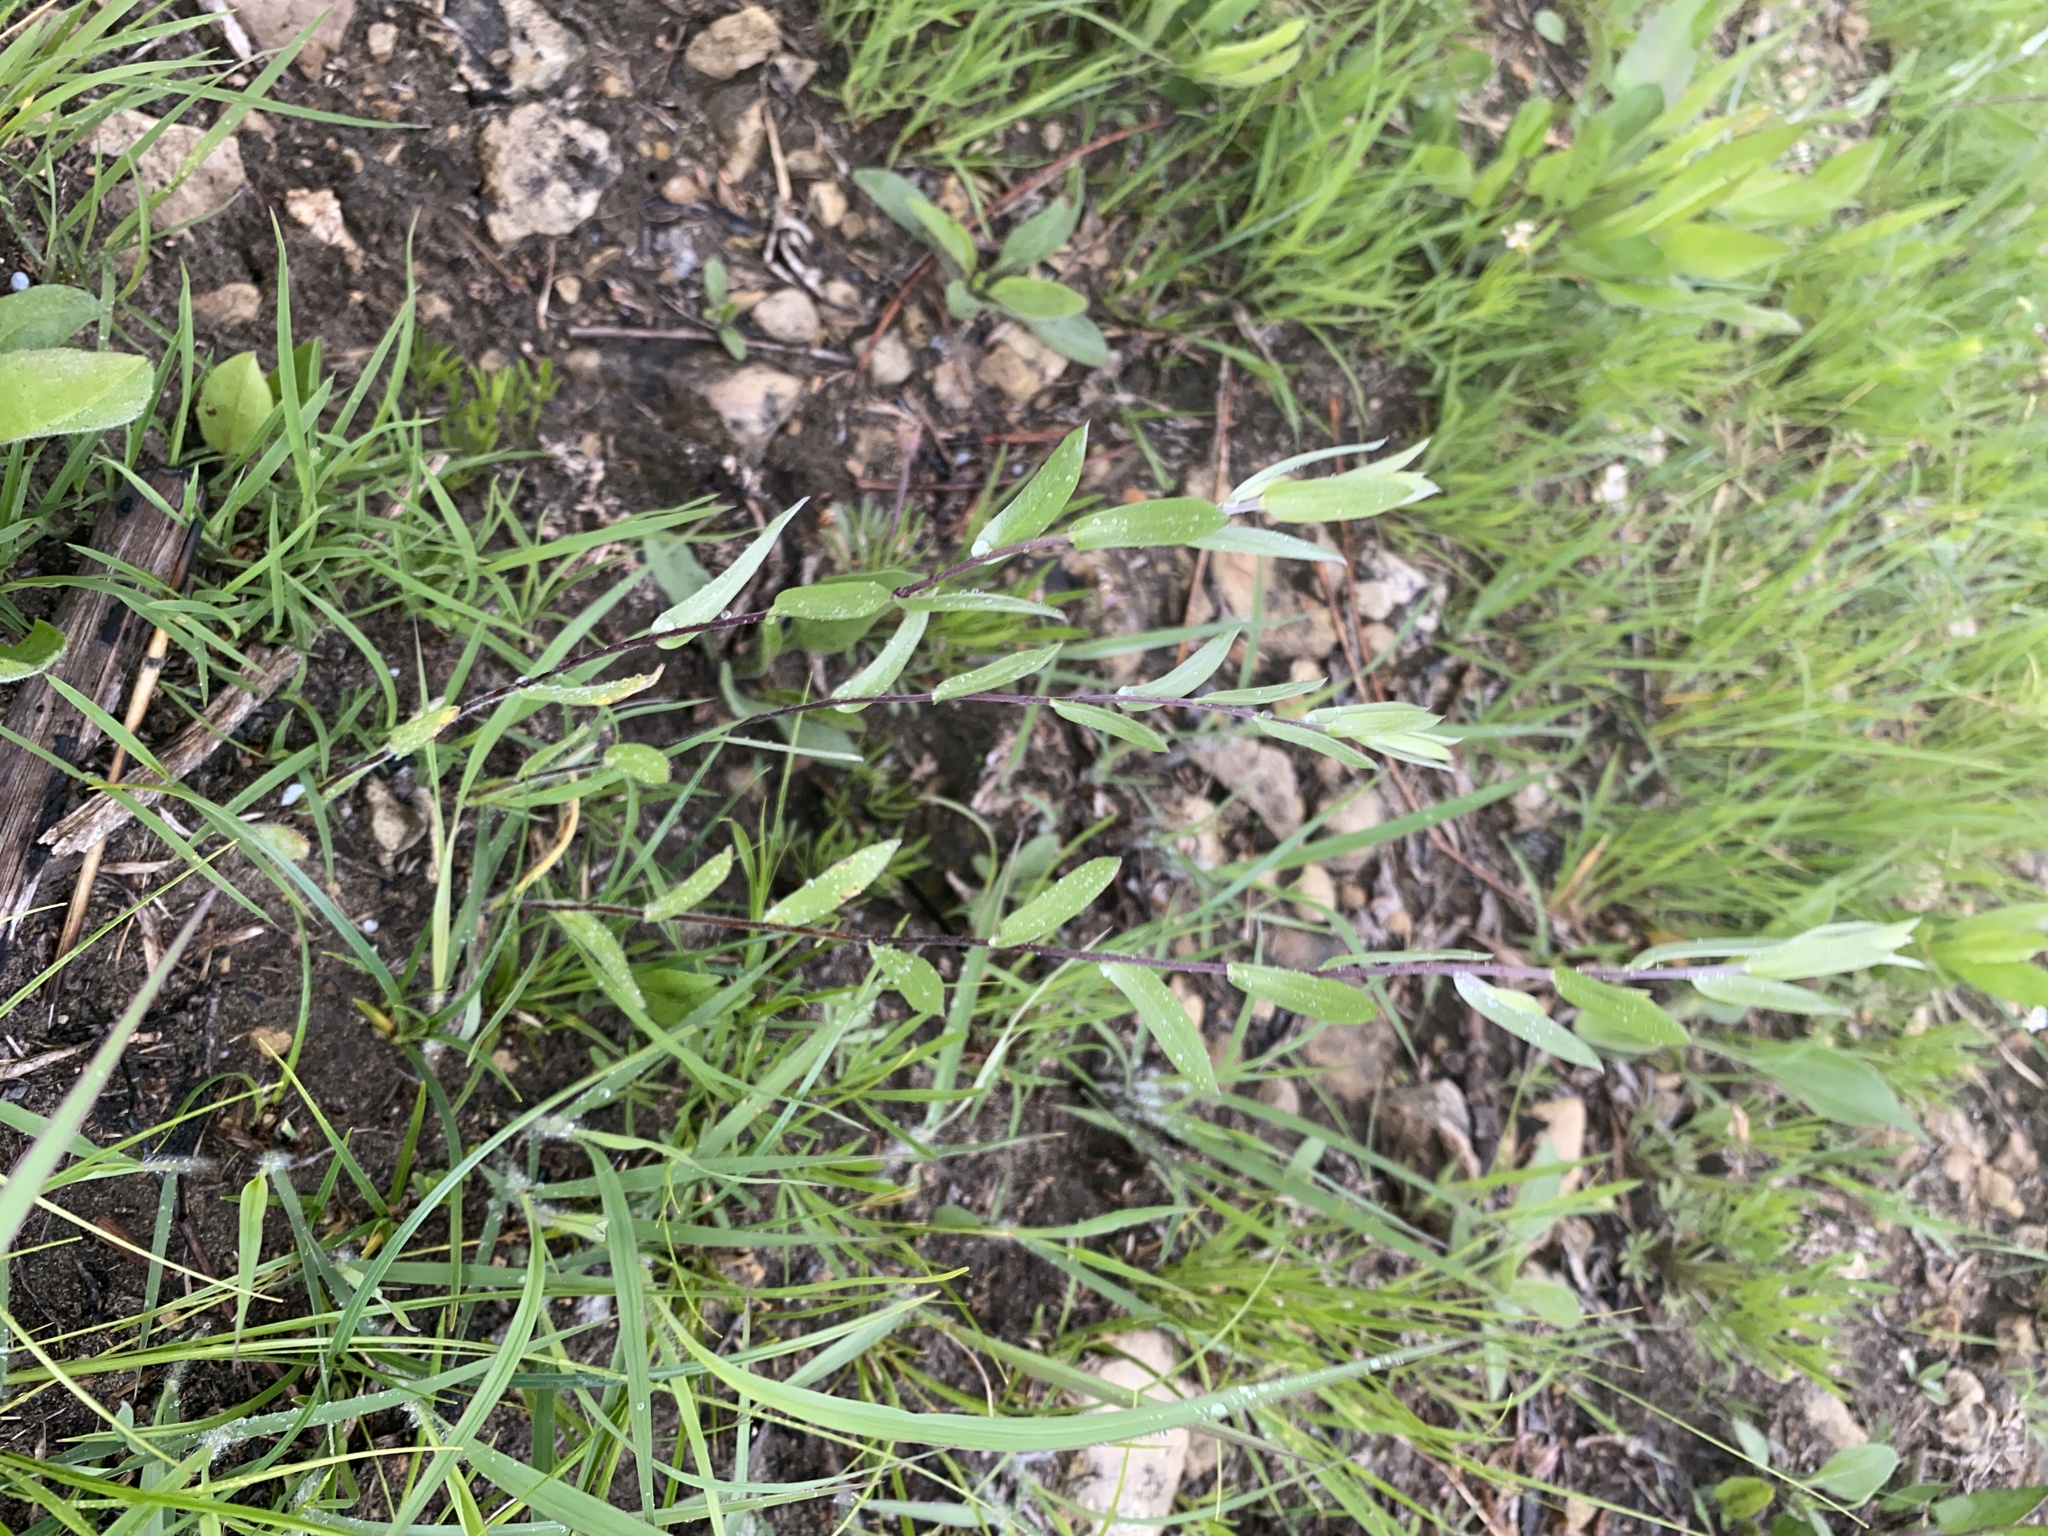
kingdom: Plantae
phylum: Tracheophyta
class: Magnoliopsida
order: Asterales
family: Asteraceae
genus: Symphyotrichum
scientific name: Symphyotrichum sericeum
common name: Silky aster
